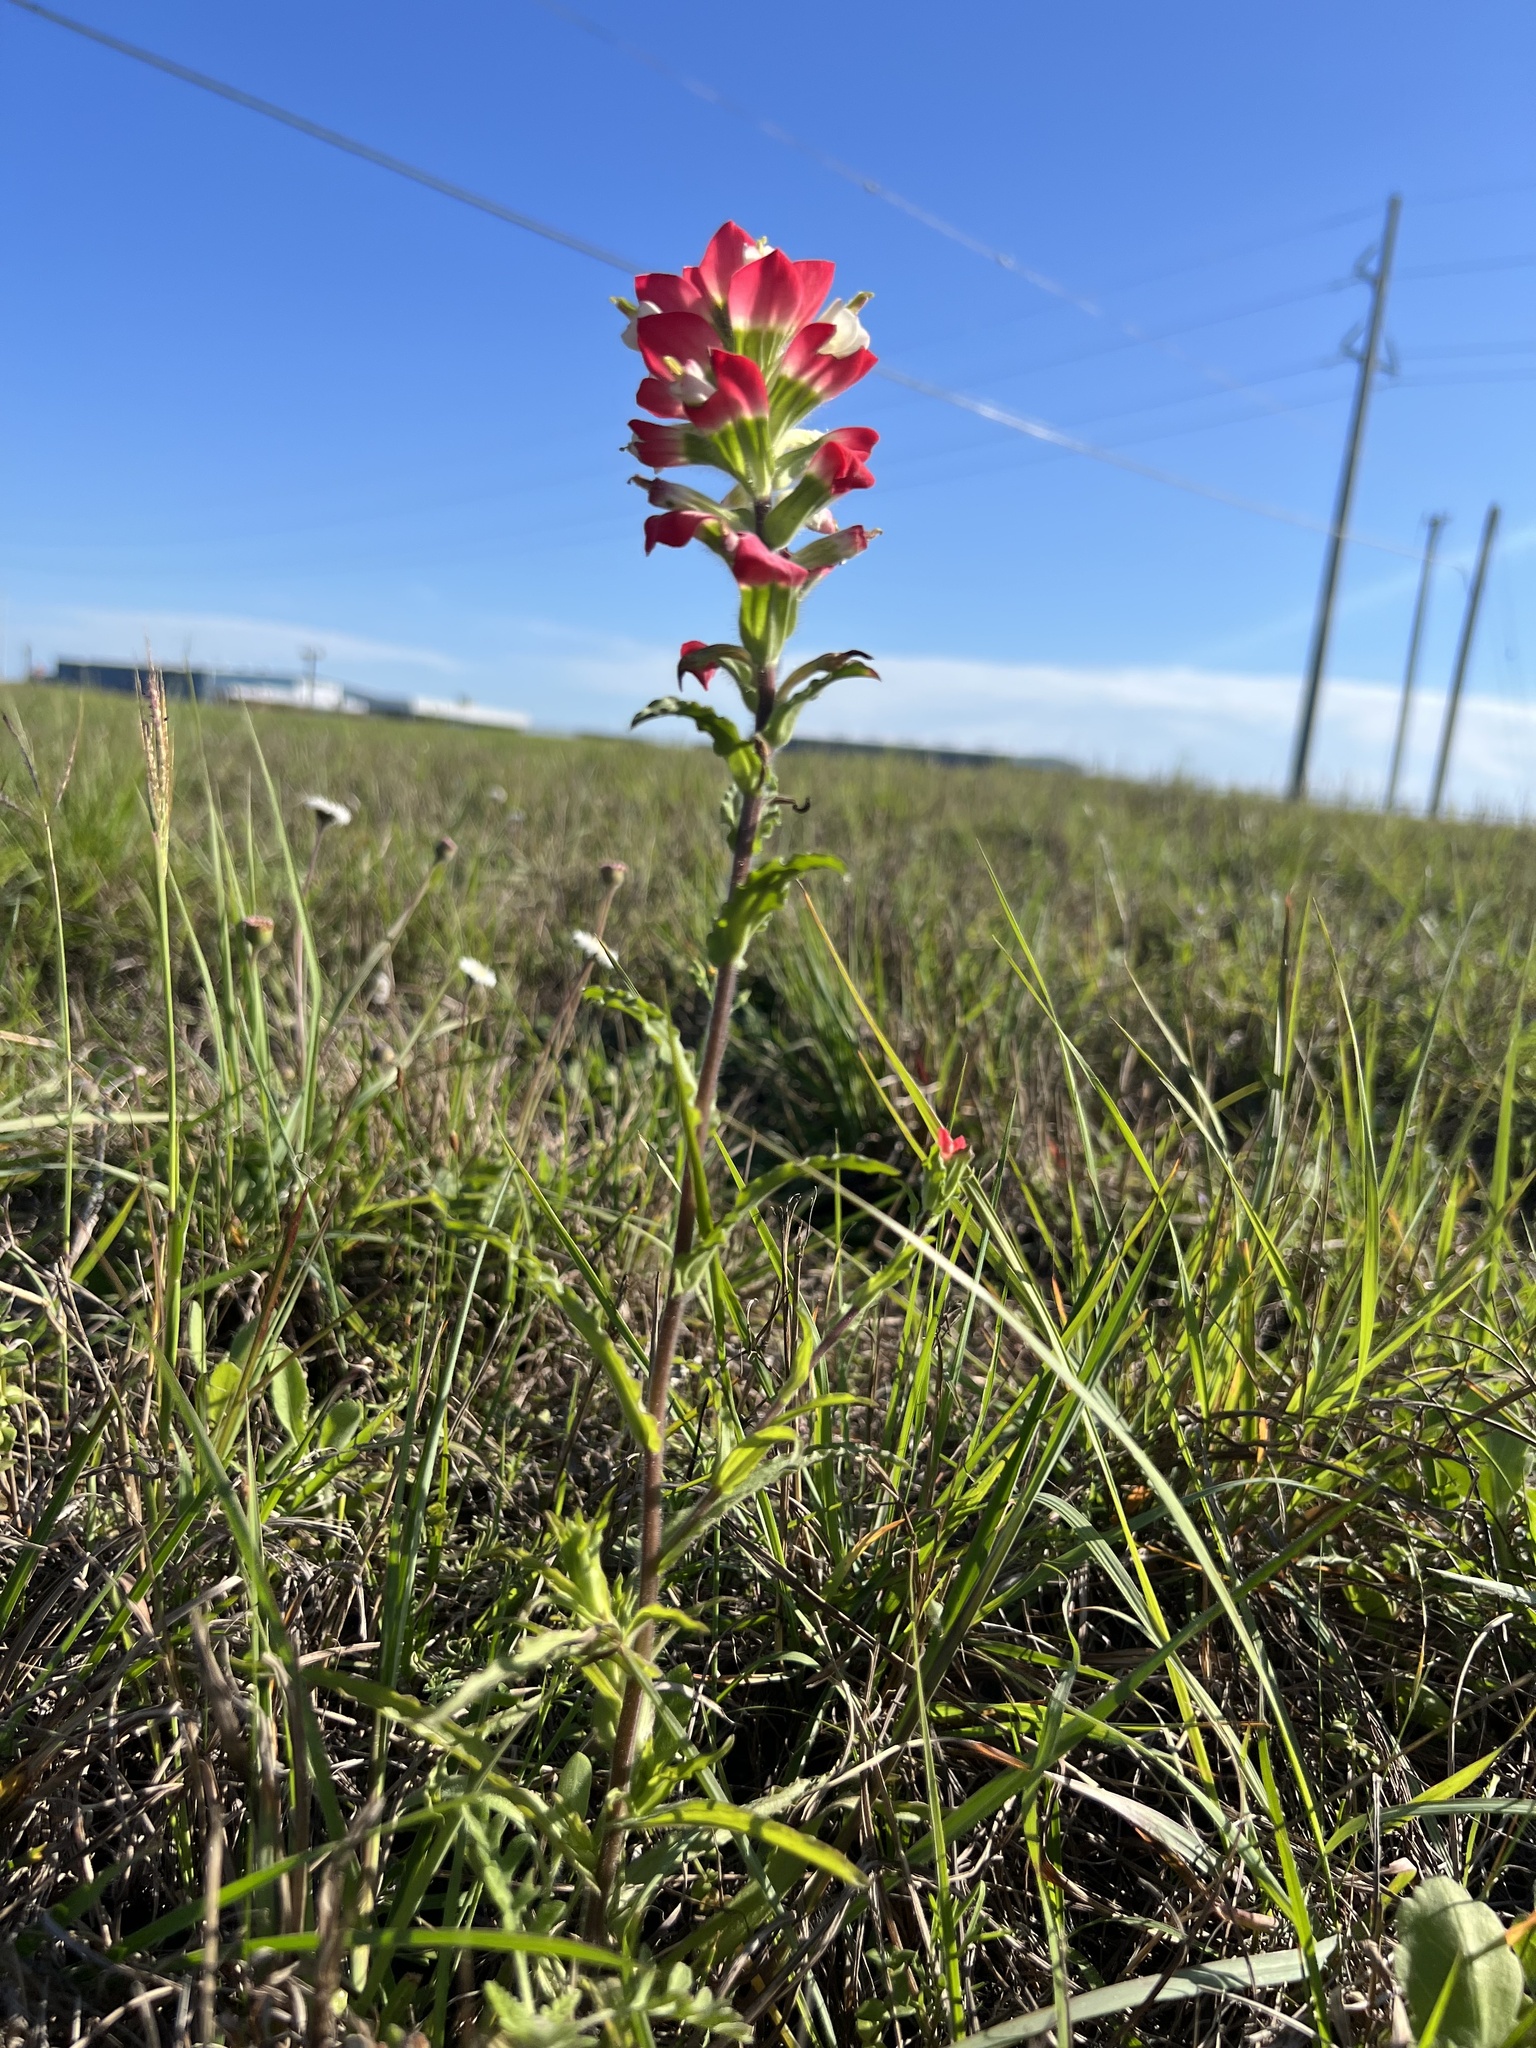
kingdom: Plantae
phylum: Tracheophyta
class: Magnoliopsida
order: Lamiales
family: Orobanchaceae
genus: Castilleja
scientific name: Castilleja indivisa
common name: Texas paintbrush
